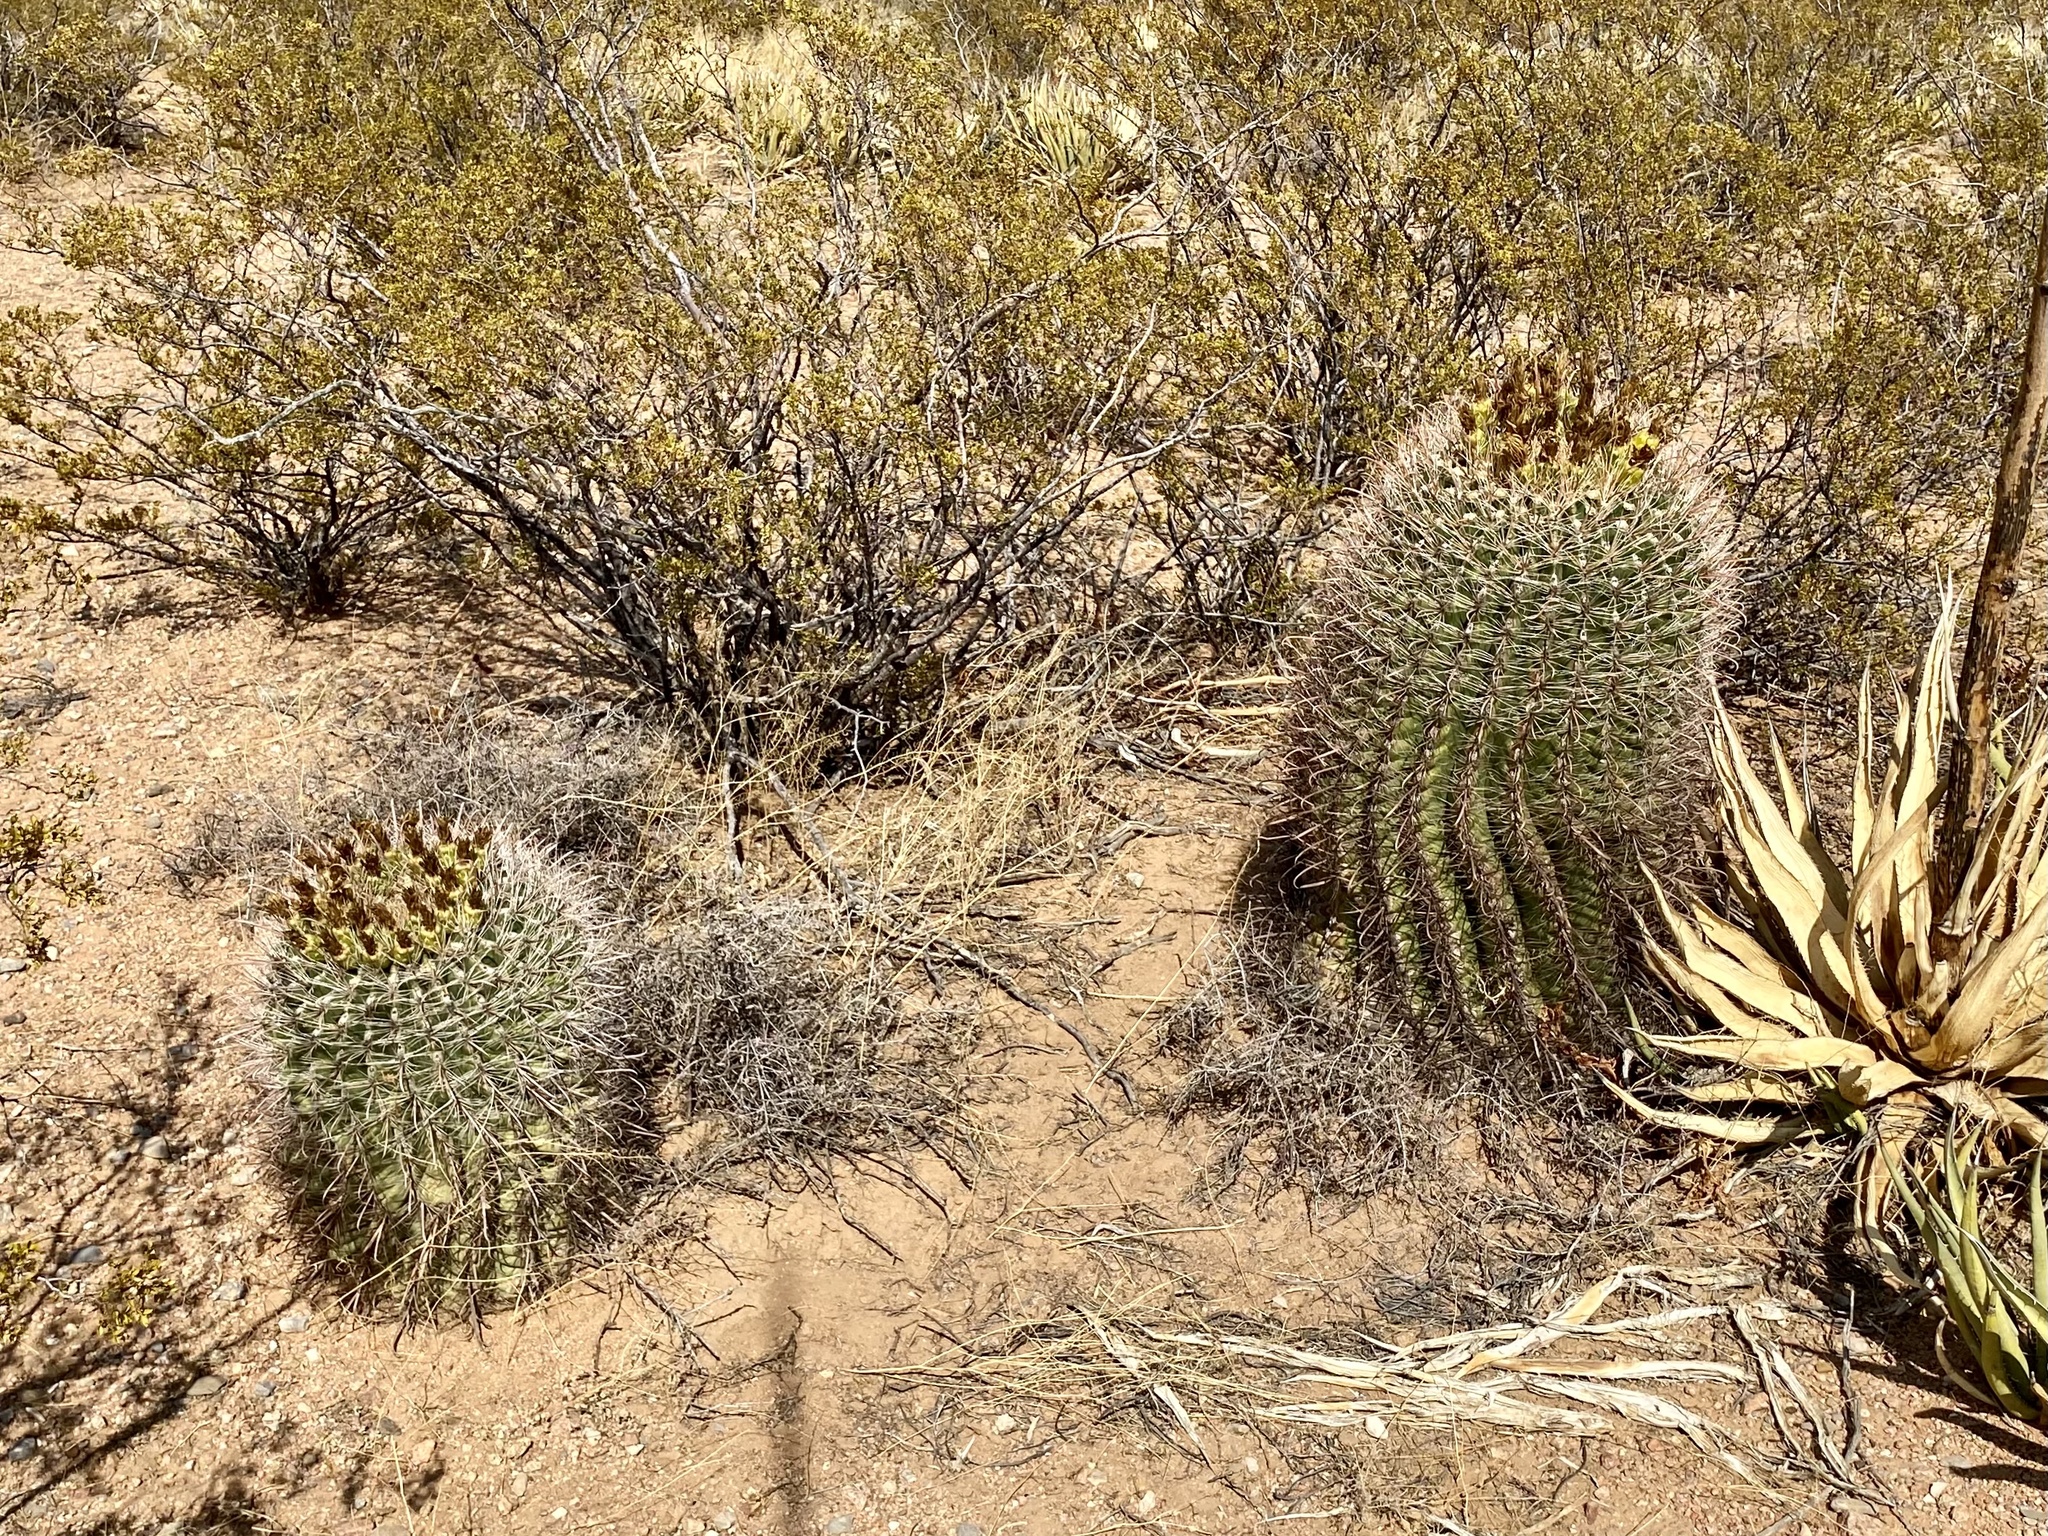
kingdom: Plantae
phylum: Tracheophyta
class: Magnoliopsida
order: Caryophyllales
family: Cactaceae
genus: Ferocactus
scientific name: Ferocactus wislizeni
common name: Candy barrel cactus
